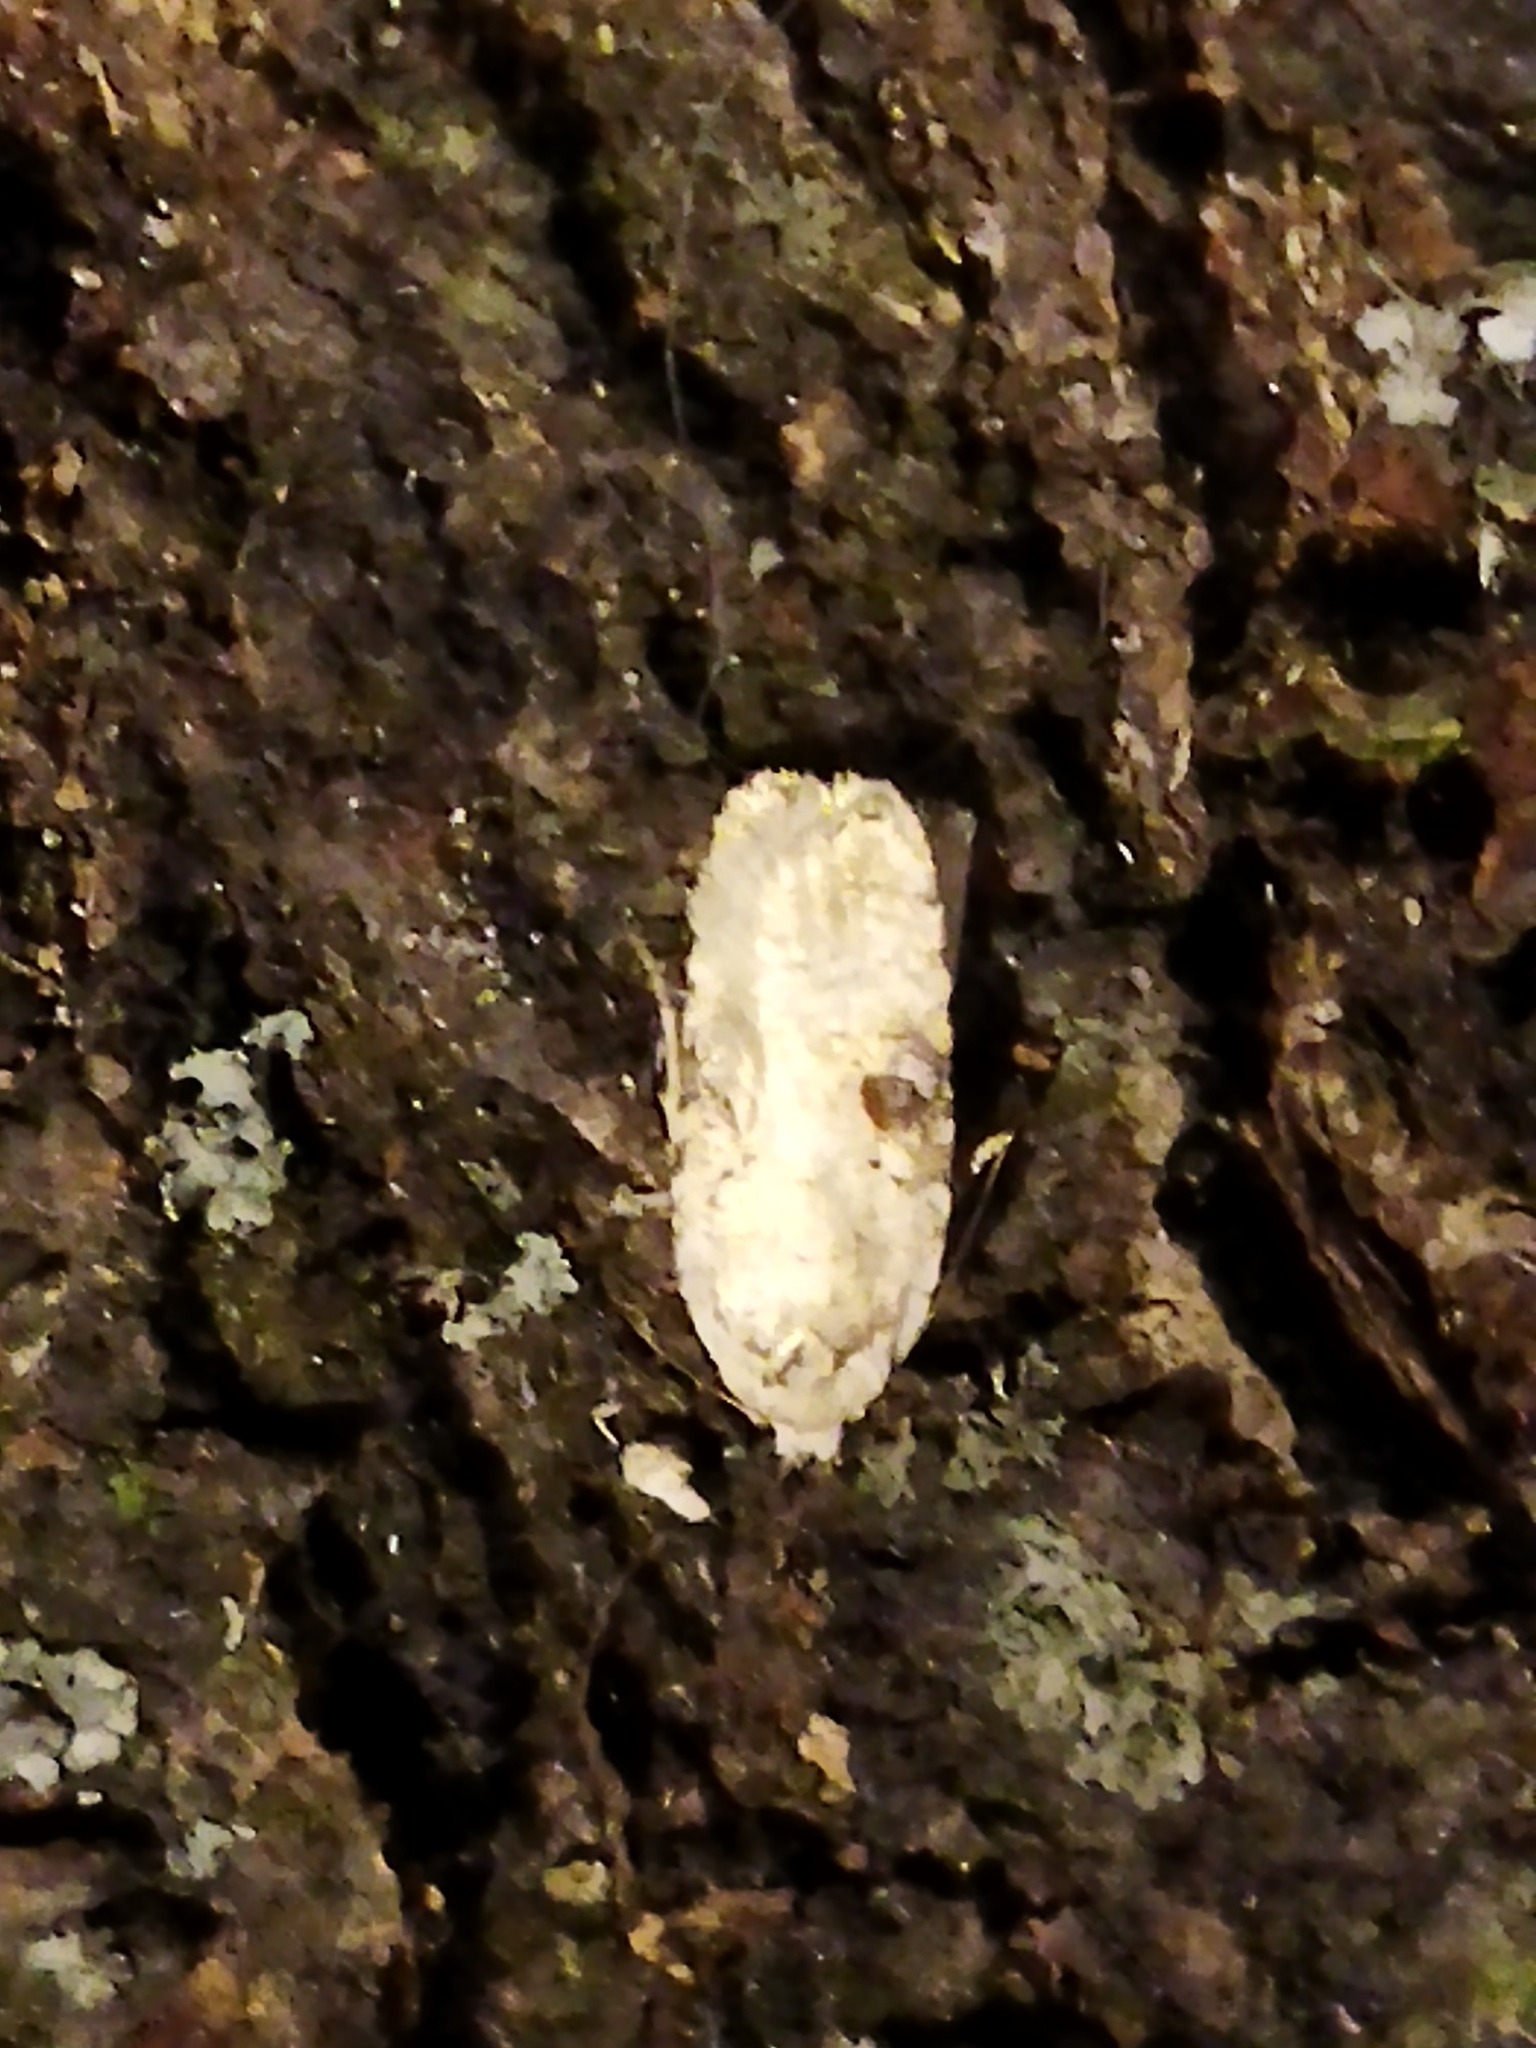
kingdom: Animalia
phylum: Arthropoda
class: Insecta
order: Lepidoptera
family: Depressariidae
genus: Agonopterix
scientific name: Agonopterix alstroemeriana
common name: Moth
